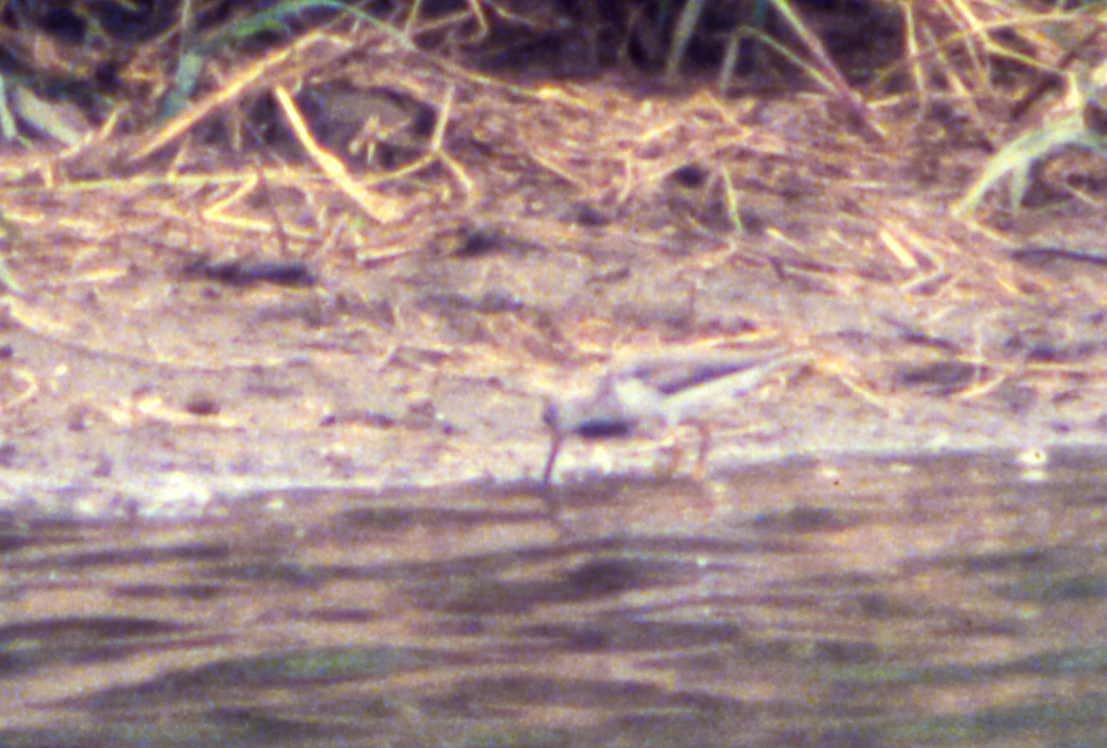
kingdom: Animalia
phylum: Chordata
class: Aves
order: Charadriiformes
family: Scolopacidae
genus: Xenus
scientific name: Xenus cinereus
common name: Terek sandpiper
